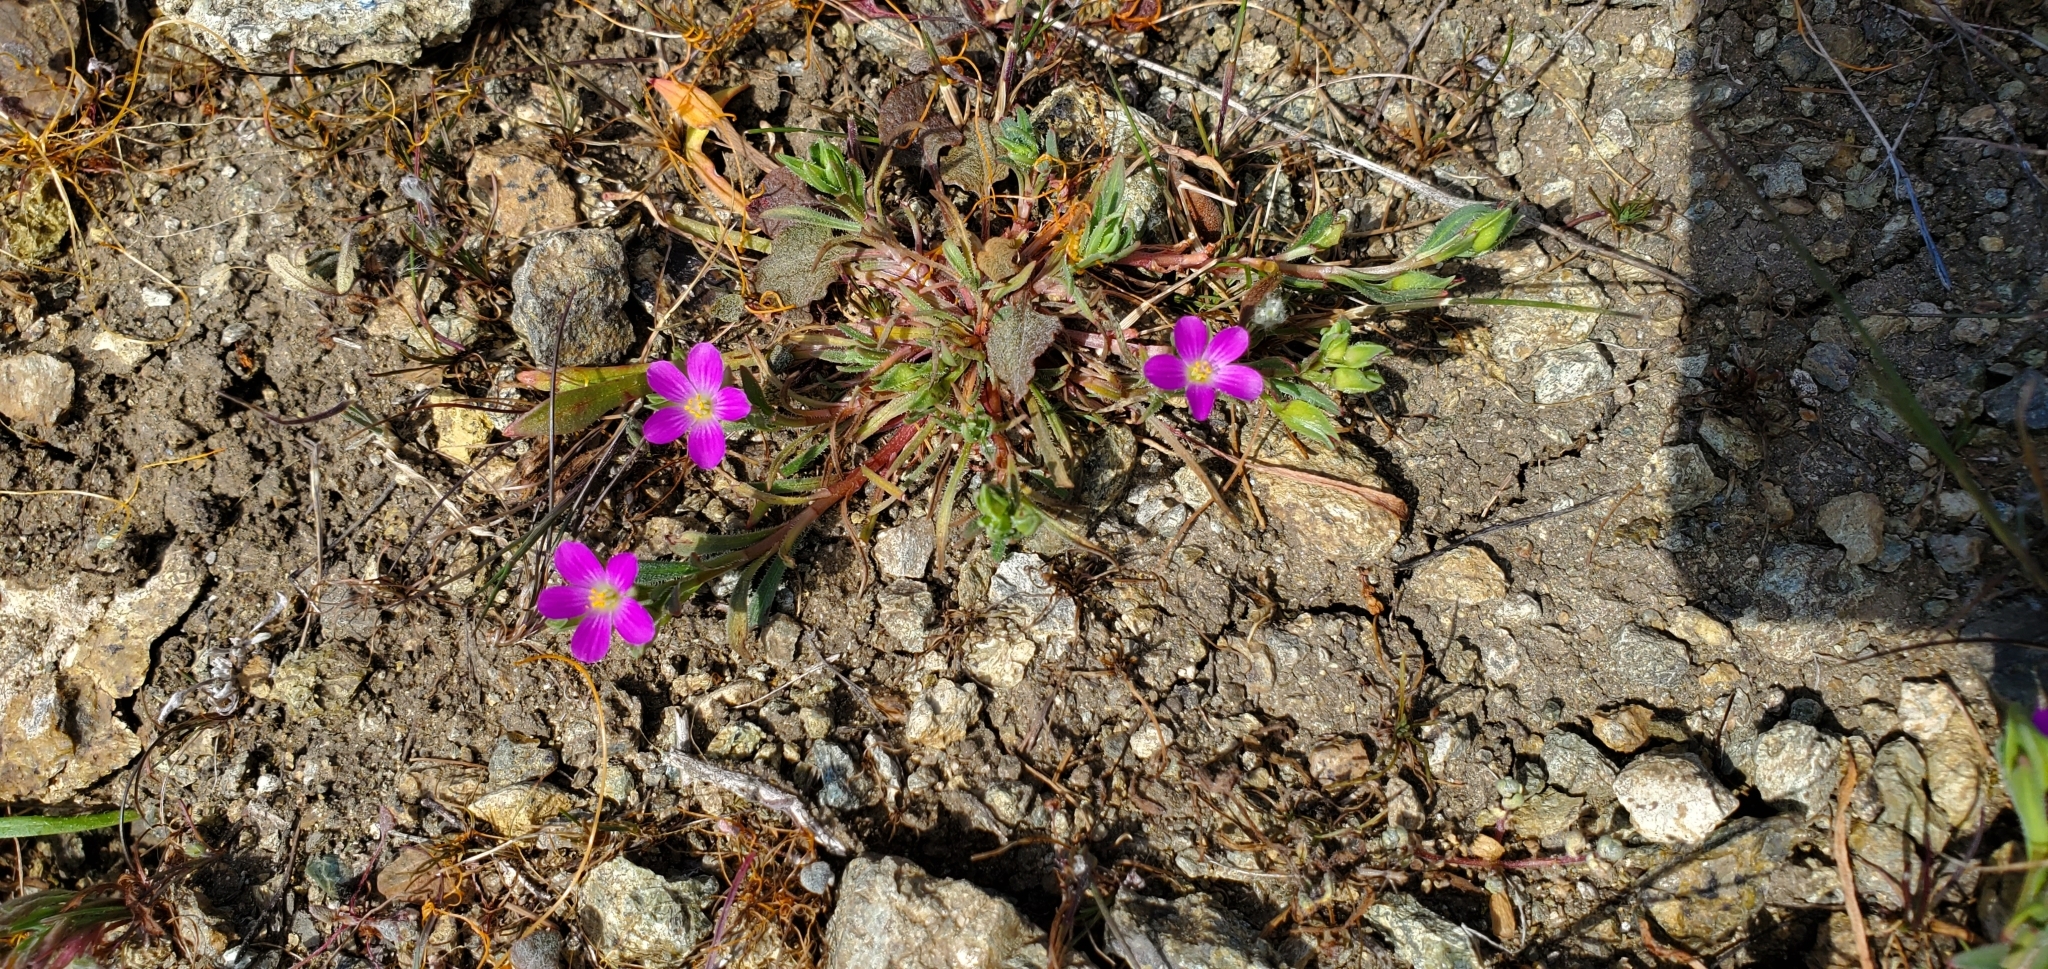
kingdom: Plantae
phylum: Tracheophyta
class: Magnoliopsida
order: Caryophyllales
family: Montiaceae
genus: Calandrinia
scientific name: Calandrinia menziesii
